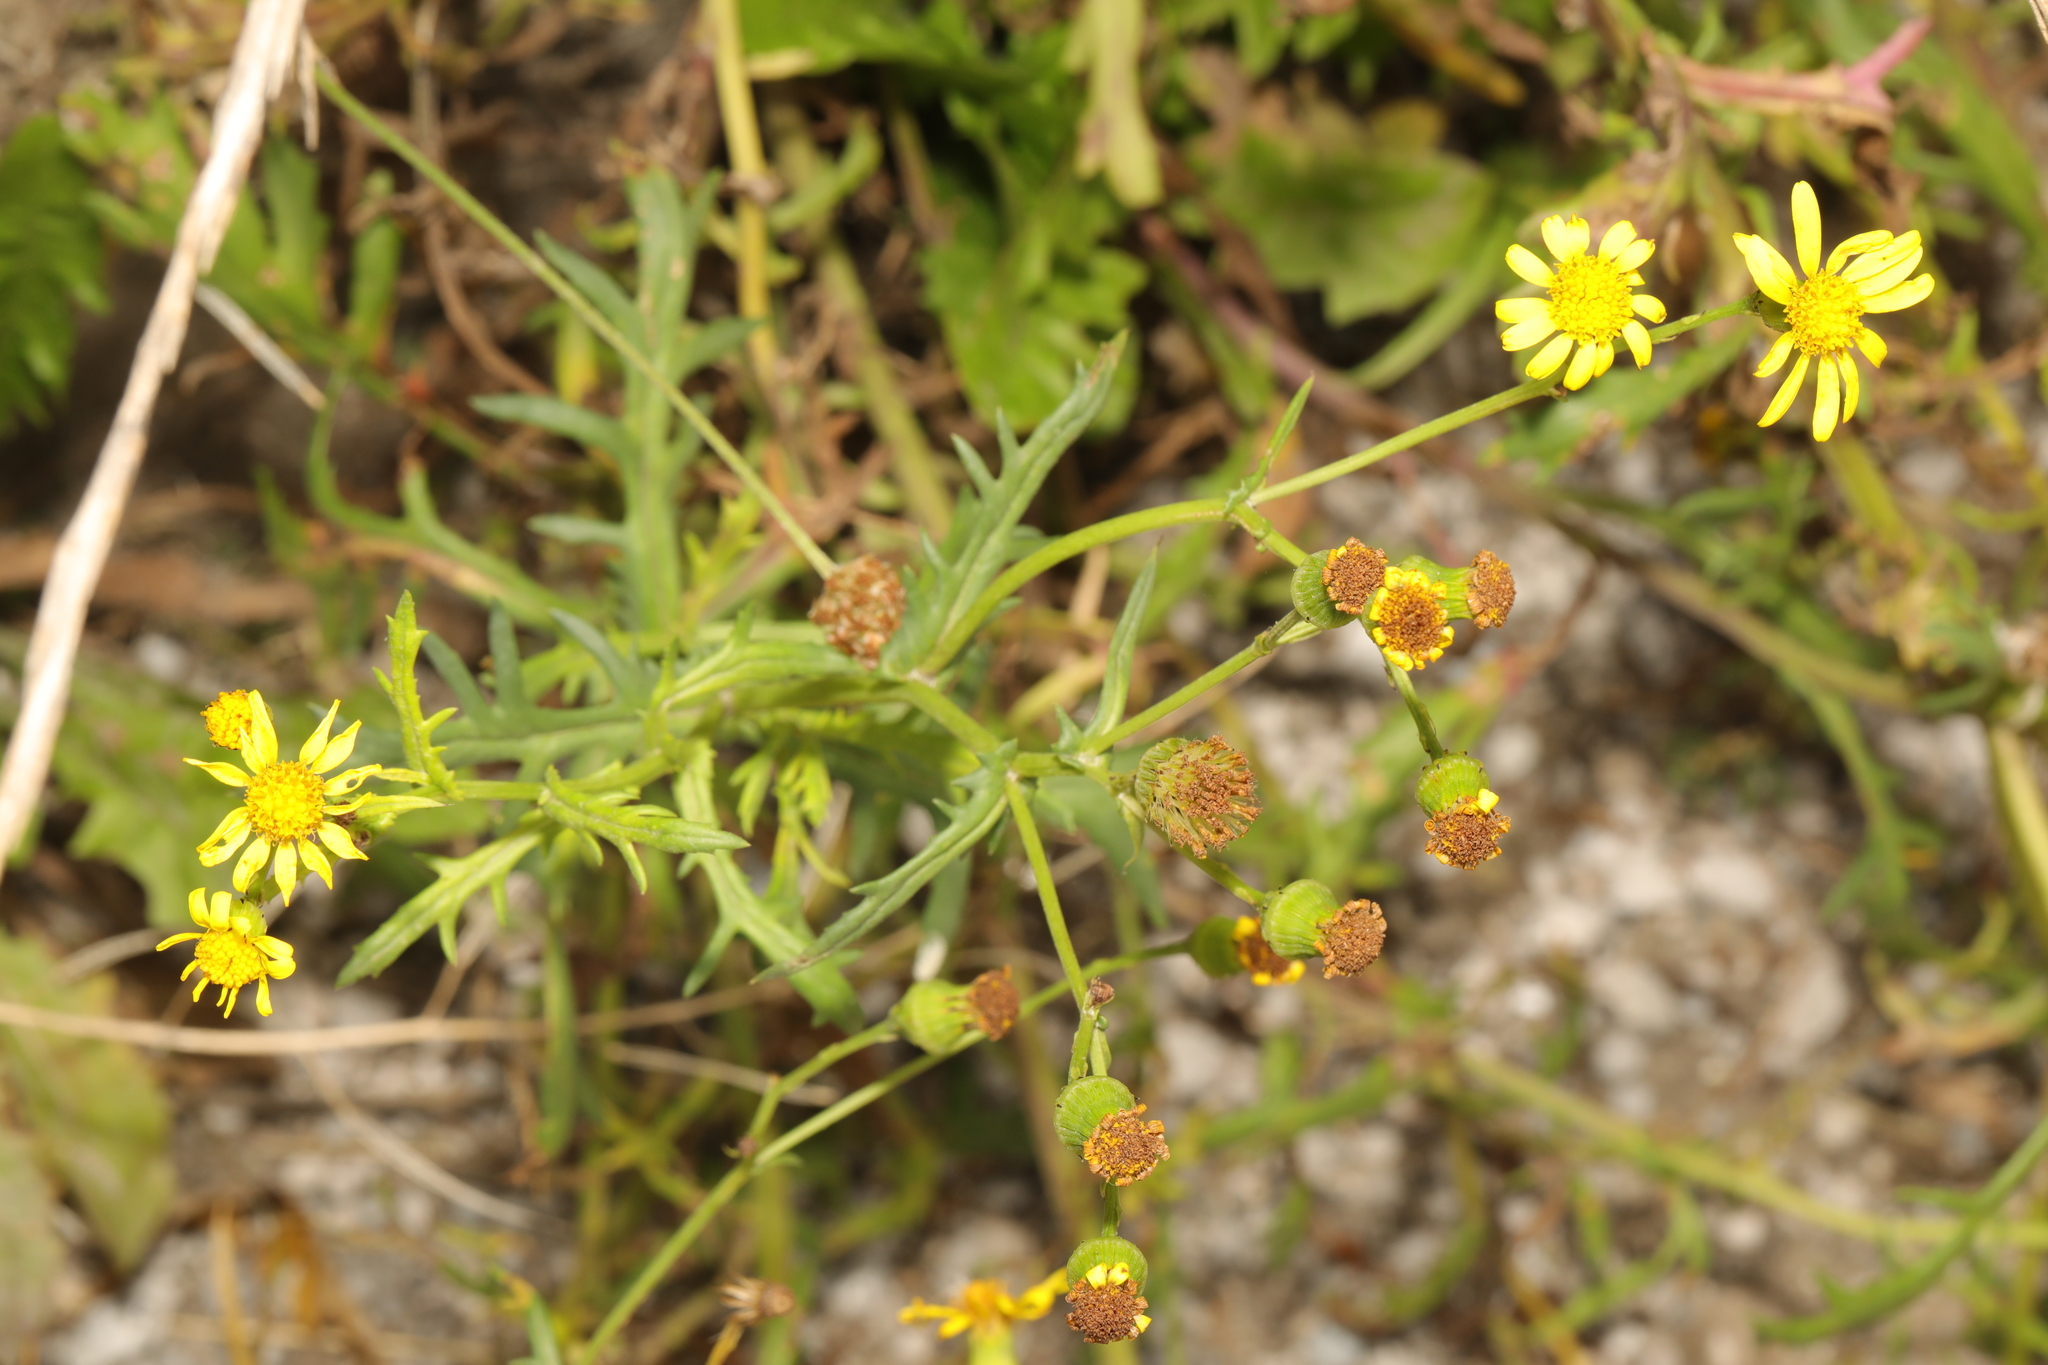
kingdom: Plantae
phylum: Tracheophyta
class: Magnoliopsida
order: Asterales
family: Asteraceae
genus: Senecio
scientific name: Senecio squalidus
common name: Oxford ragwort
